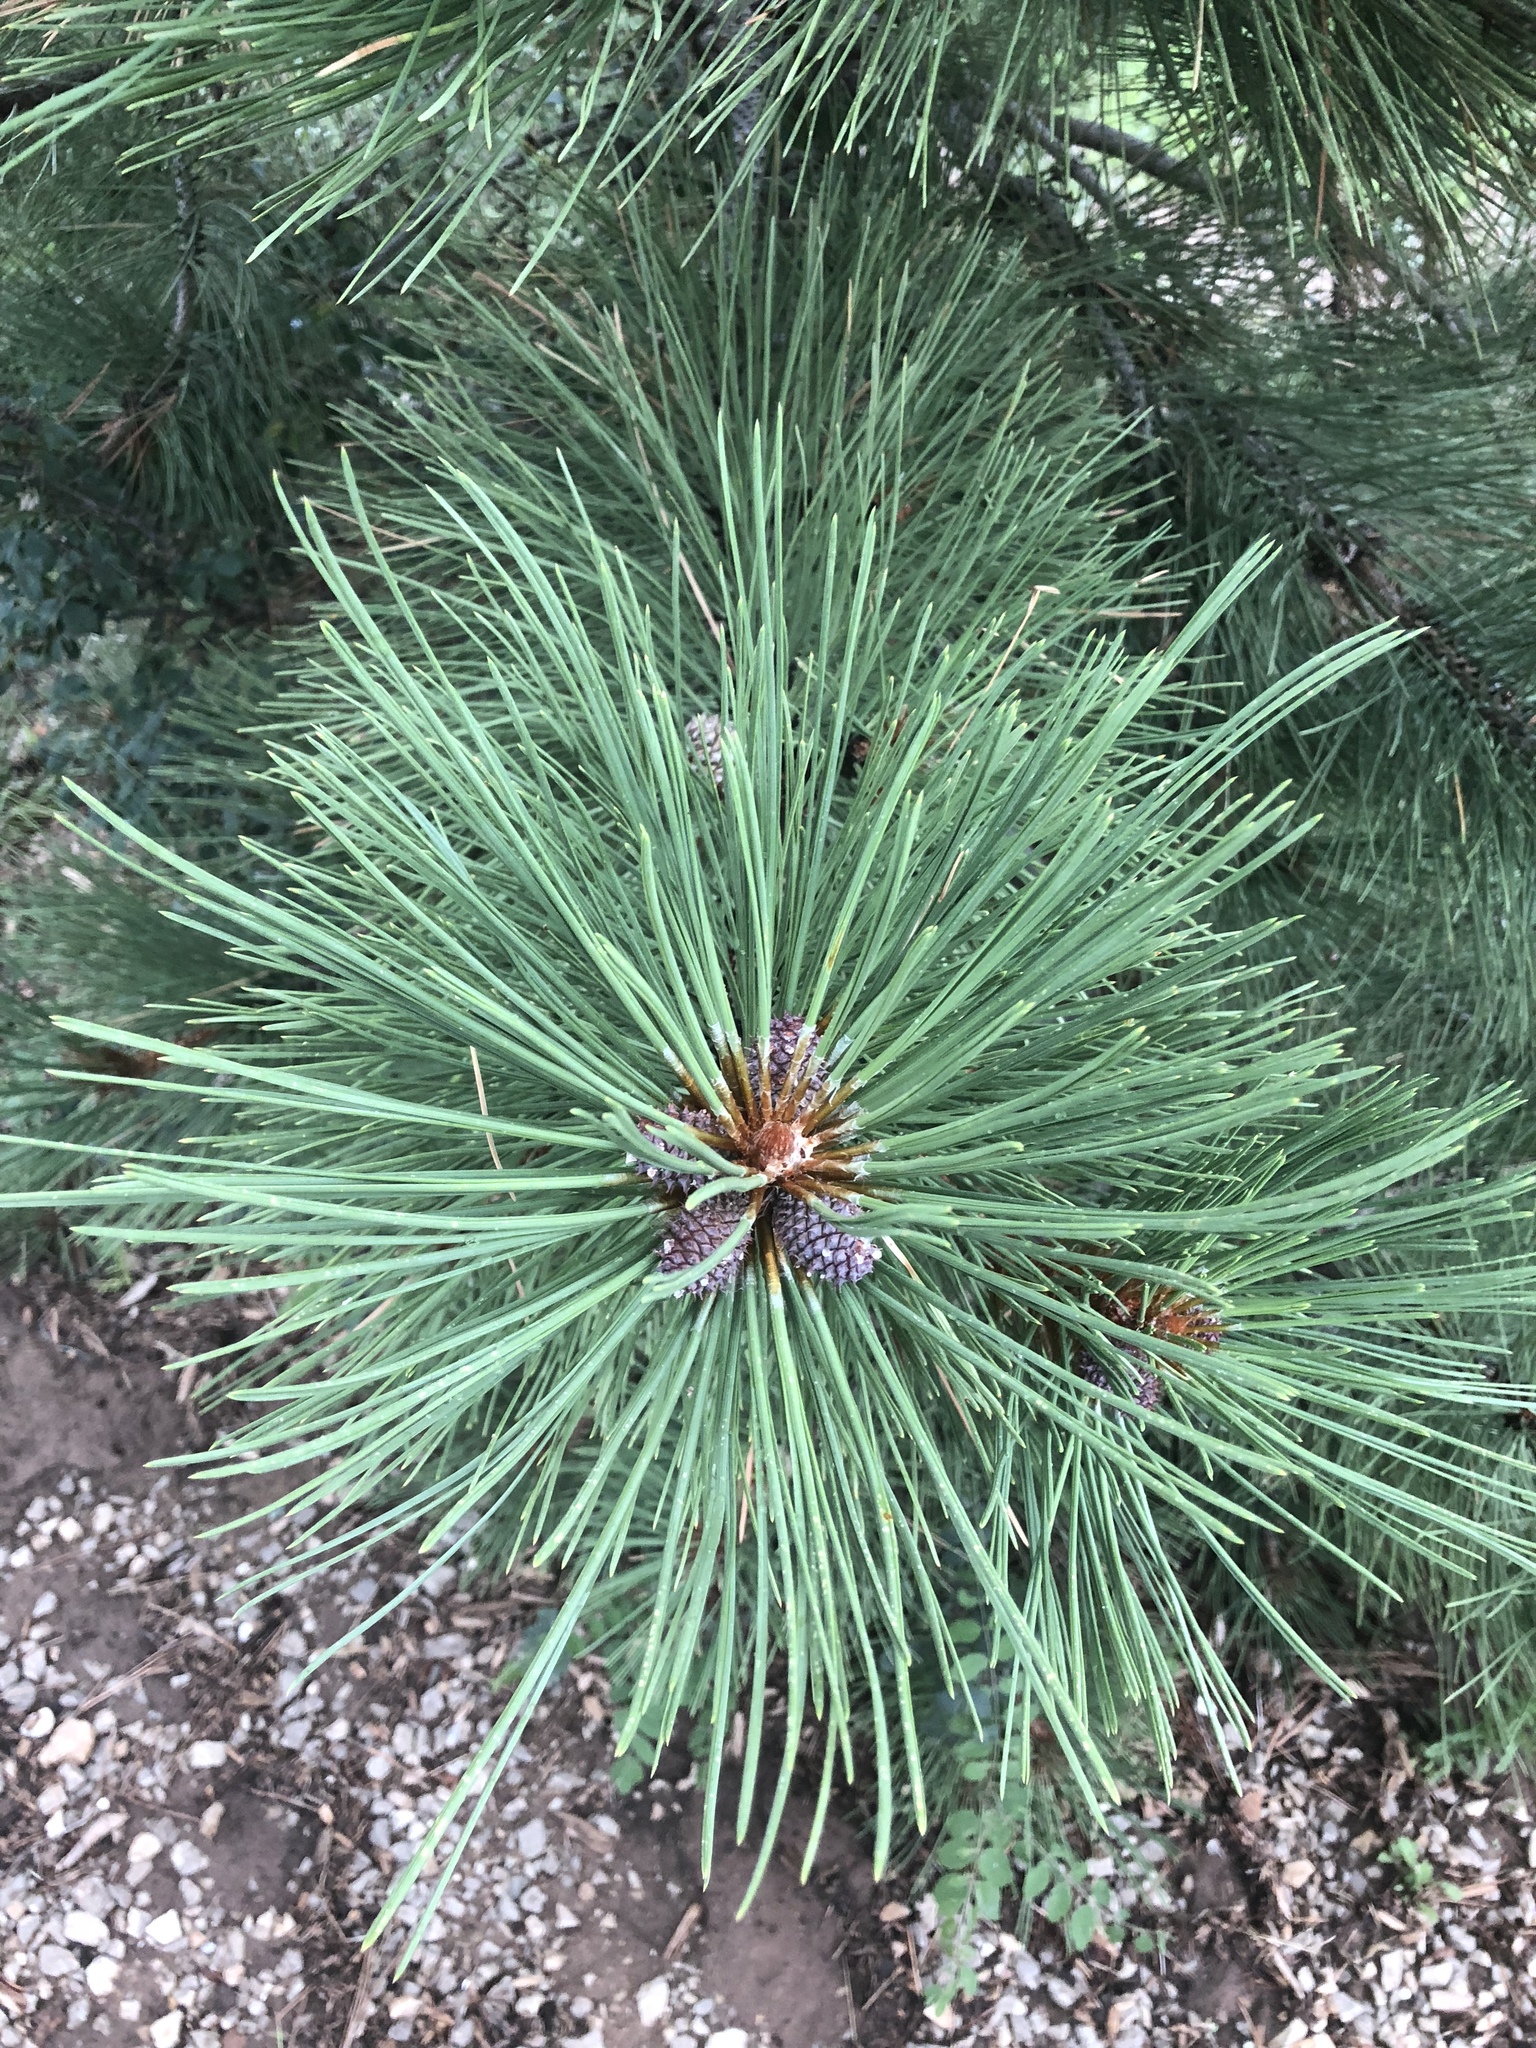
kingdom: Plantae
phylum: Tracheophyta
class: Pinopsida
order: Pinales
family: Pinaceae
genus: Pinus
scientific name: Pinus ponderosa
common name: Western yellow-pine
